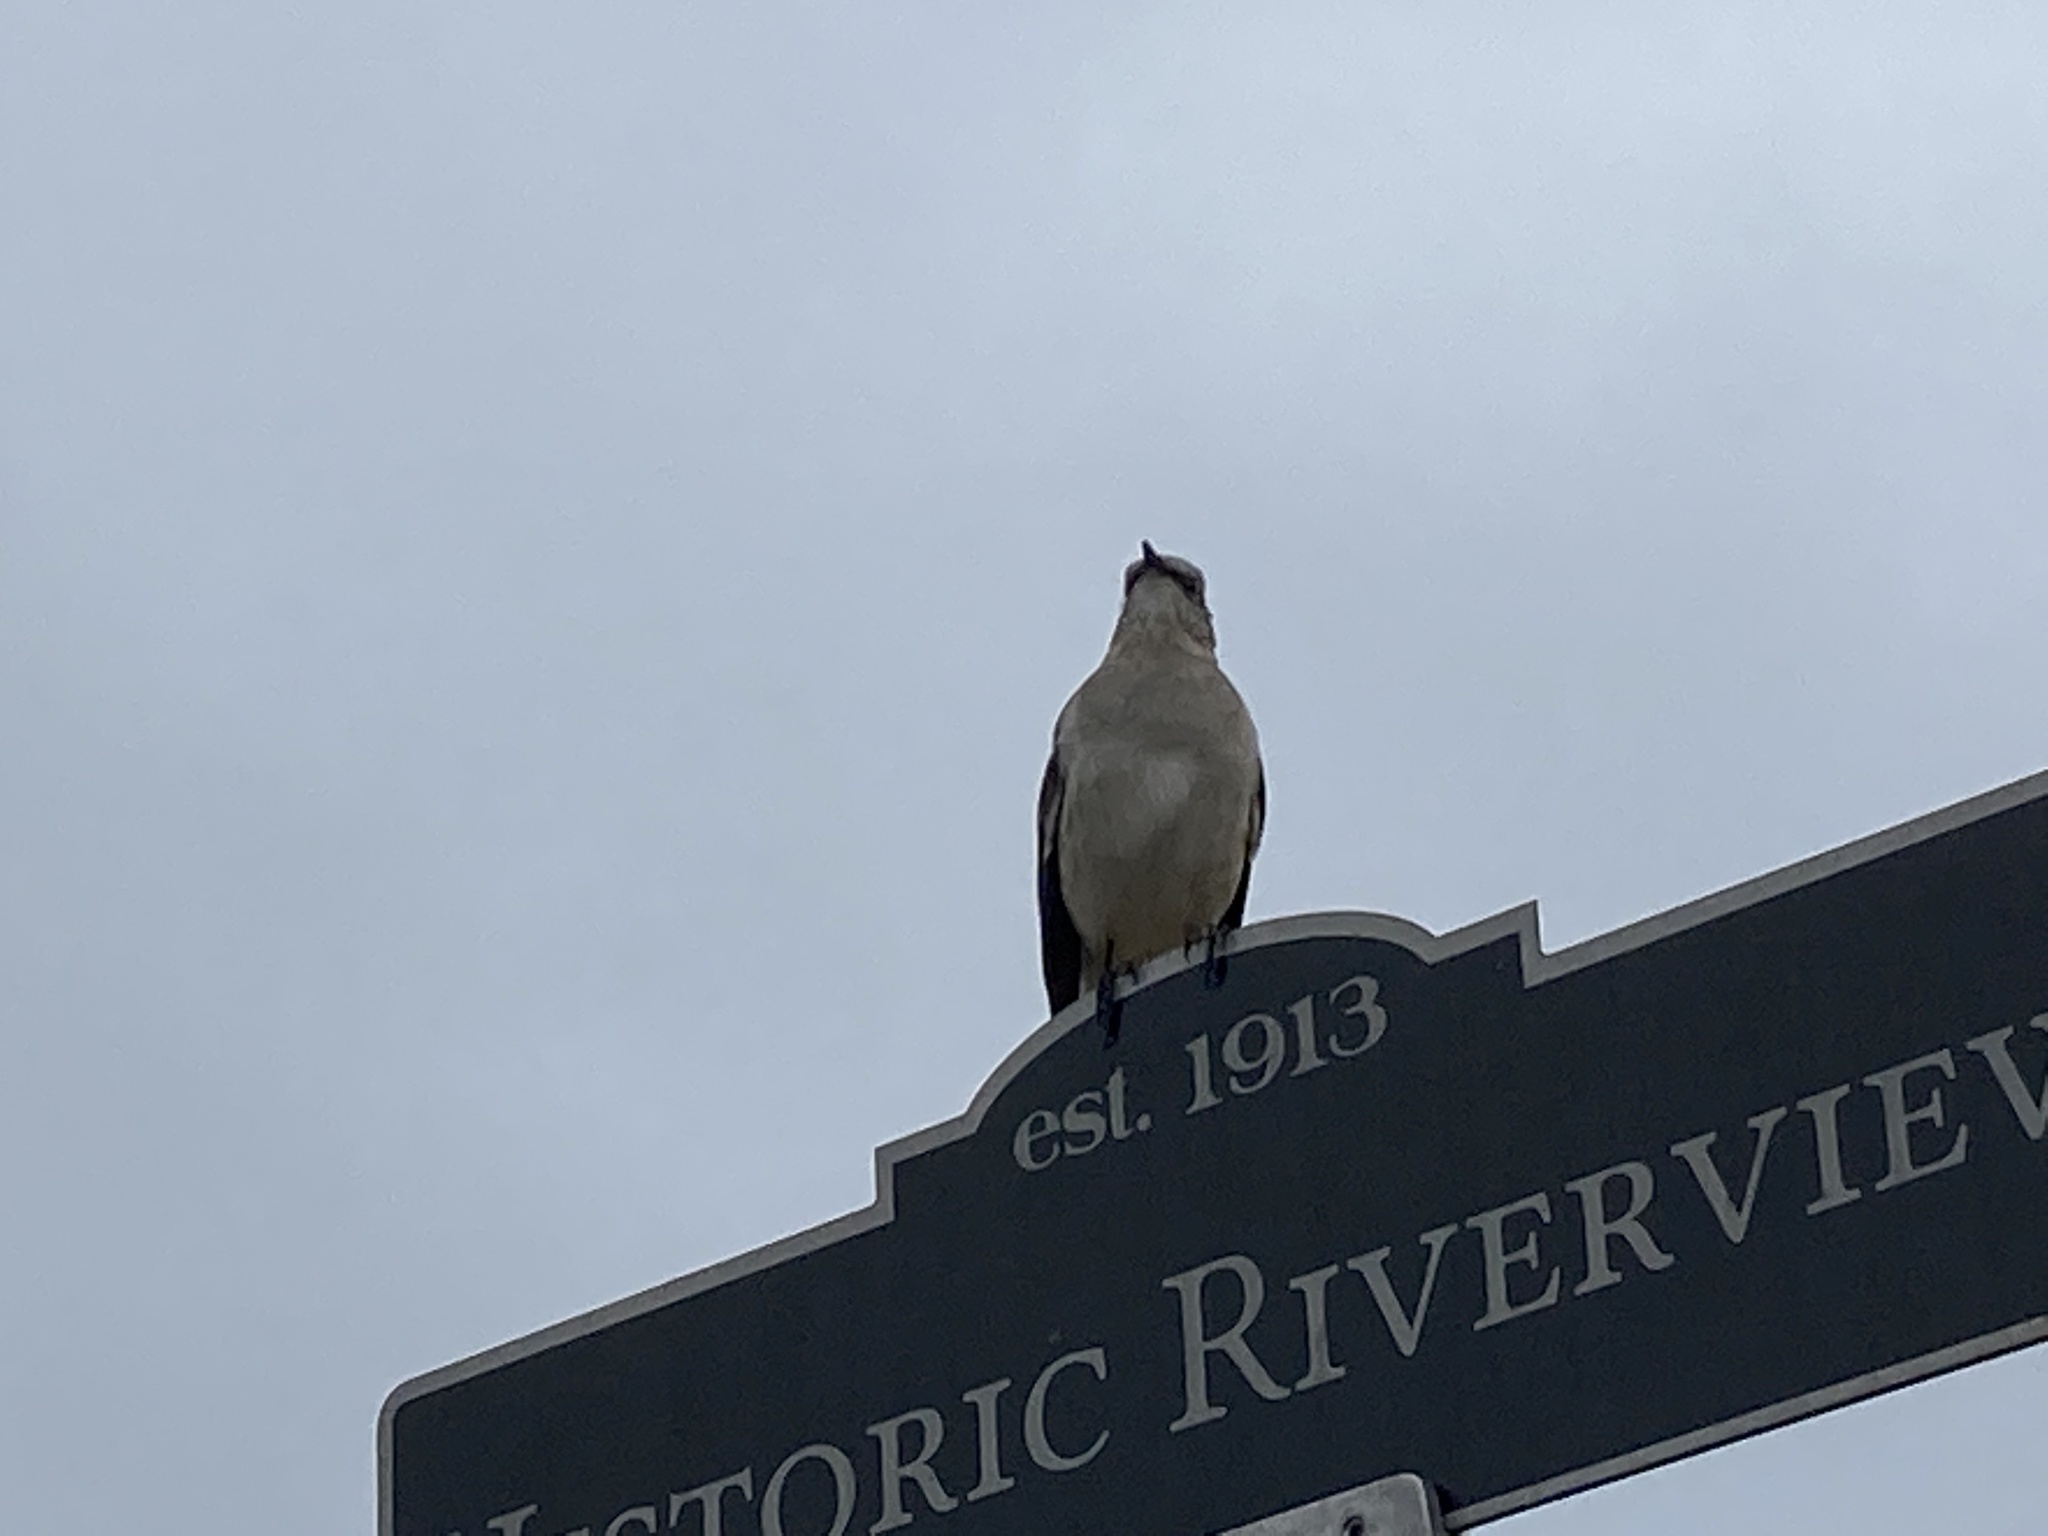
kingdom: Animalia
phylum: Chordata
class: Aves
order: Passeriformes
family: Mimidae
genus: Mimus
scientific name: Mimus polyglottos
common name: Northern mockingbird
